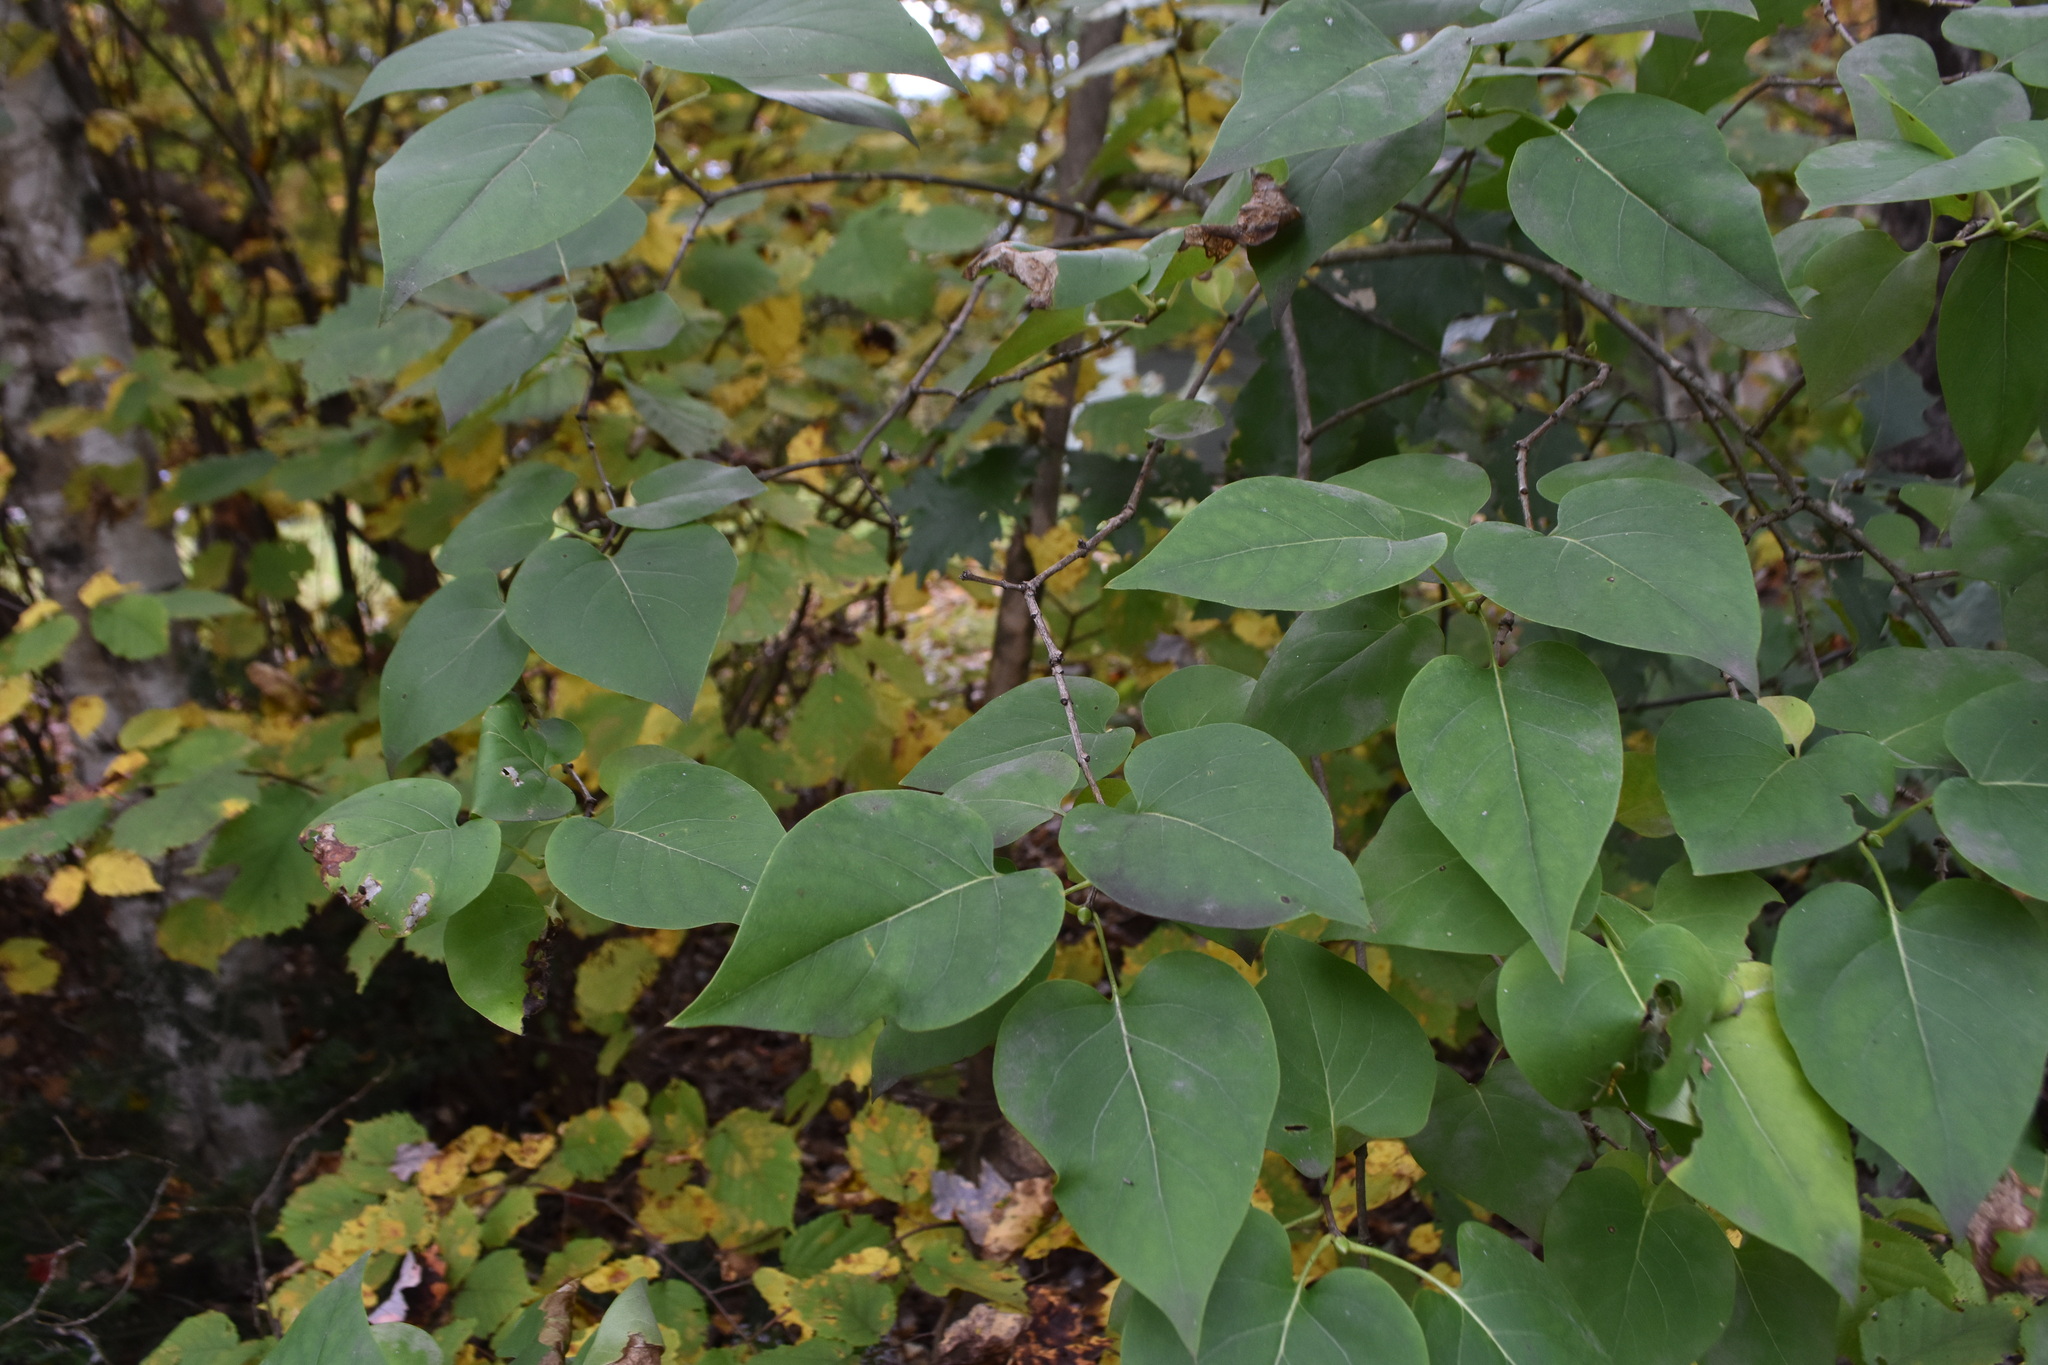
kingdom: Plantae
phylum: Tracheophyta
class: Magnoliopsida
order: Lamiales
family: Oleaceae
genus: Syringa
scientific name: Syringa vulgaris
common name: Common lilac
